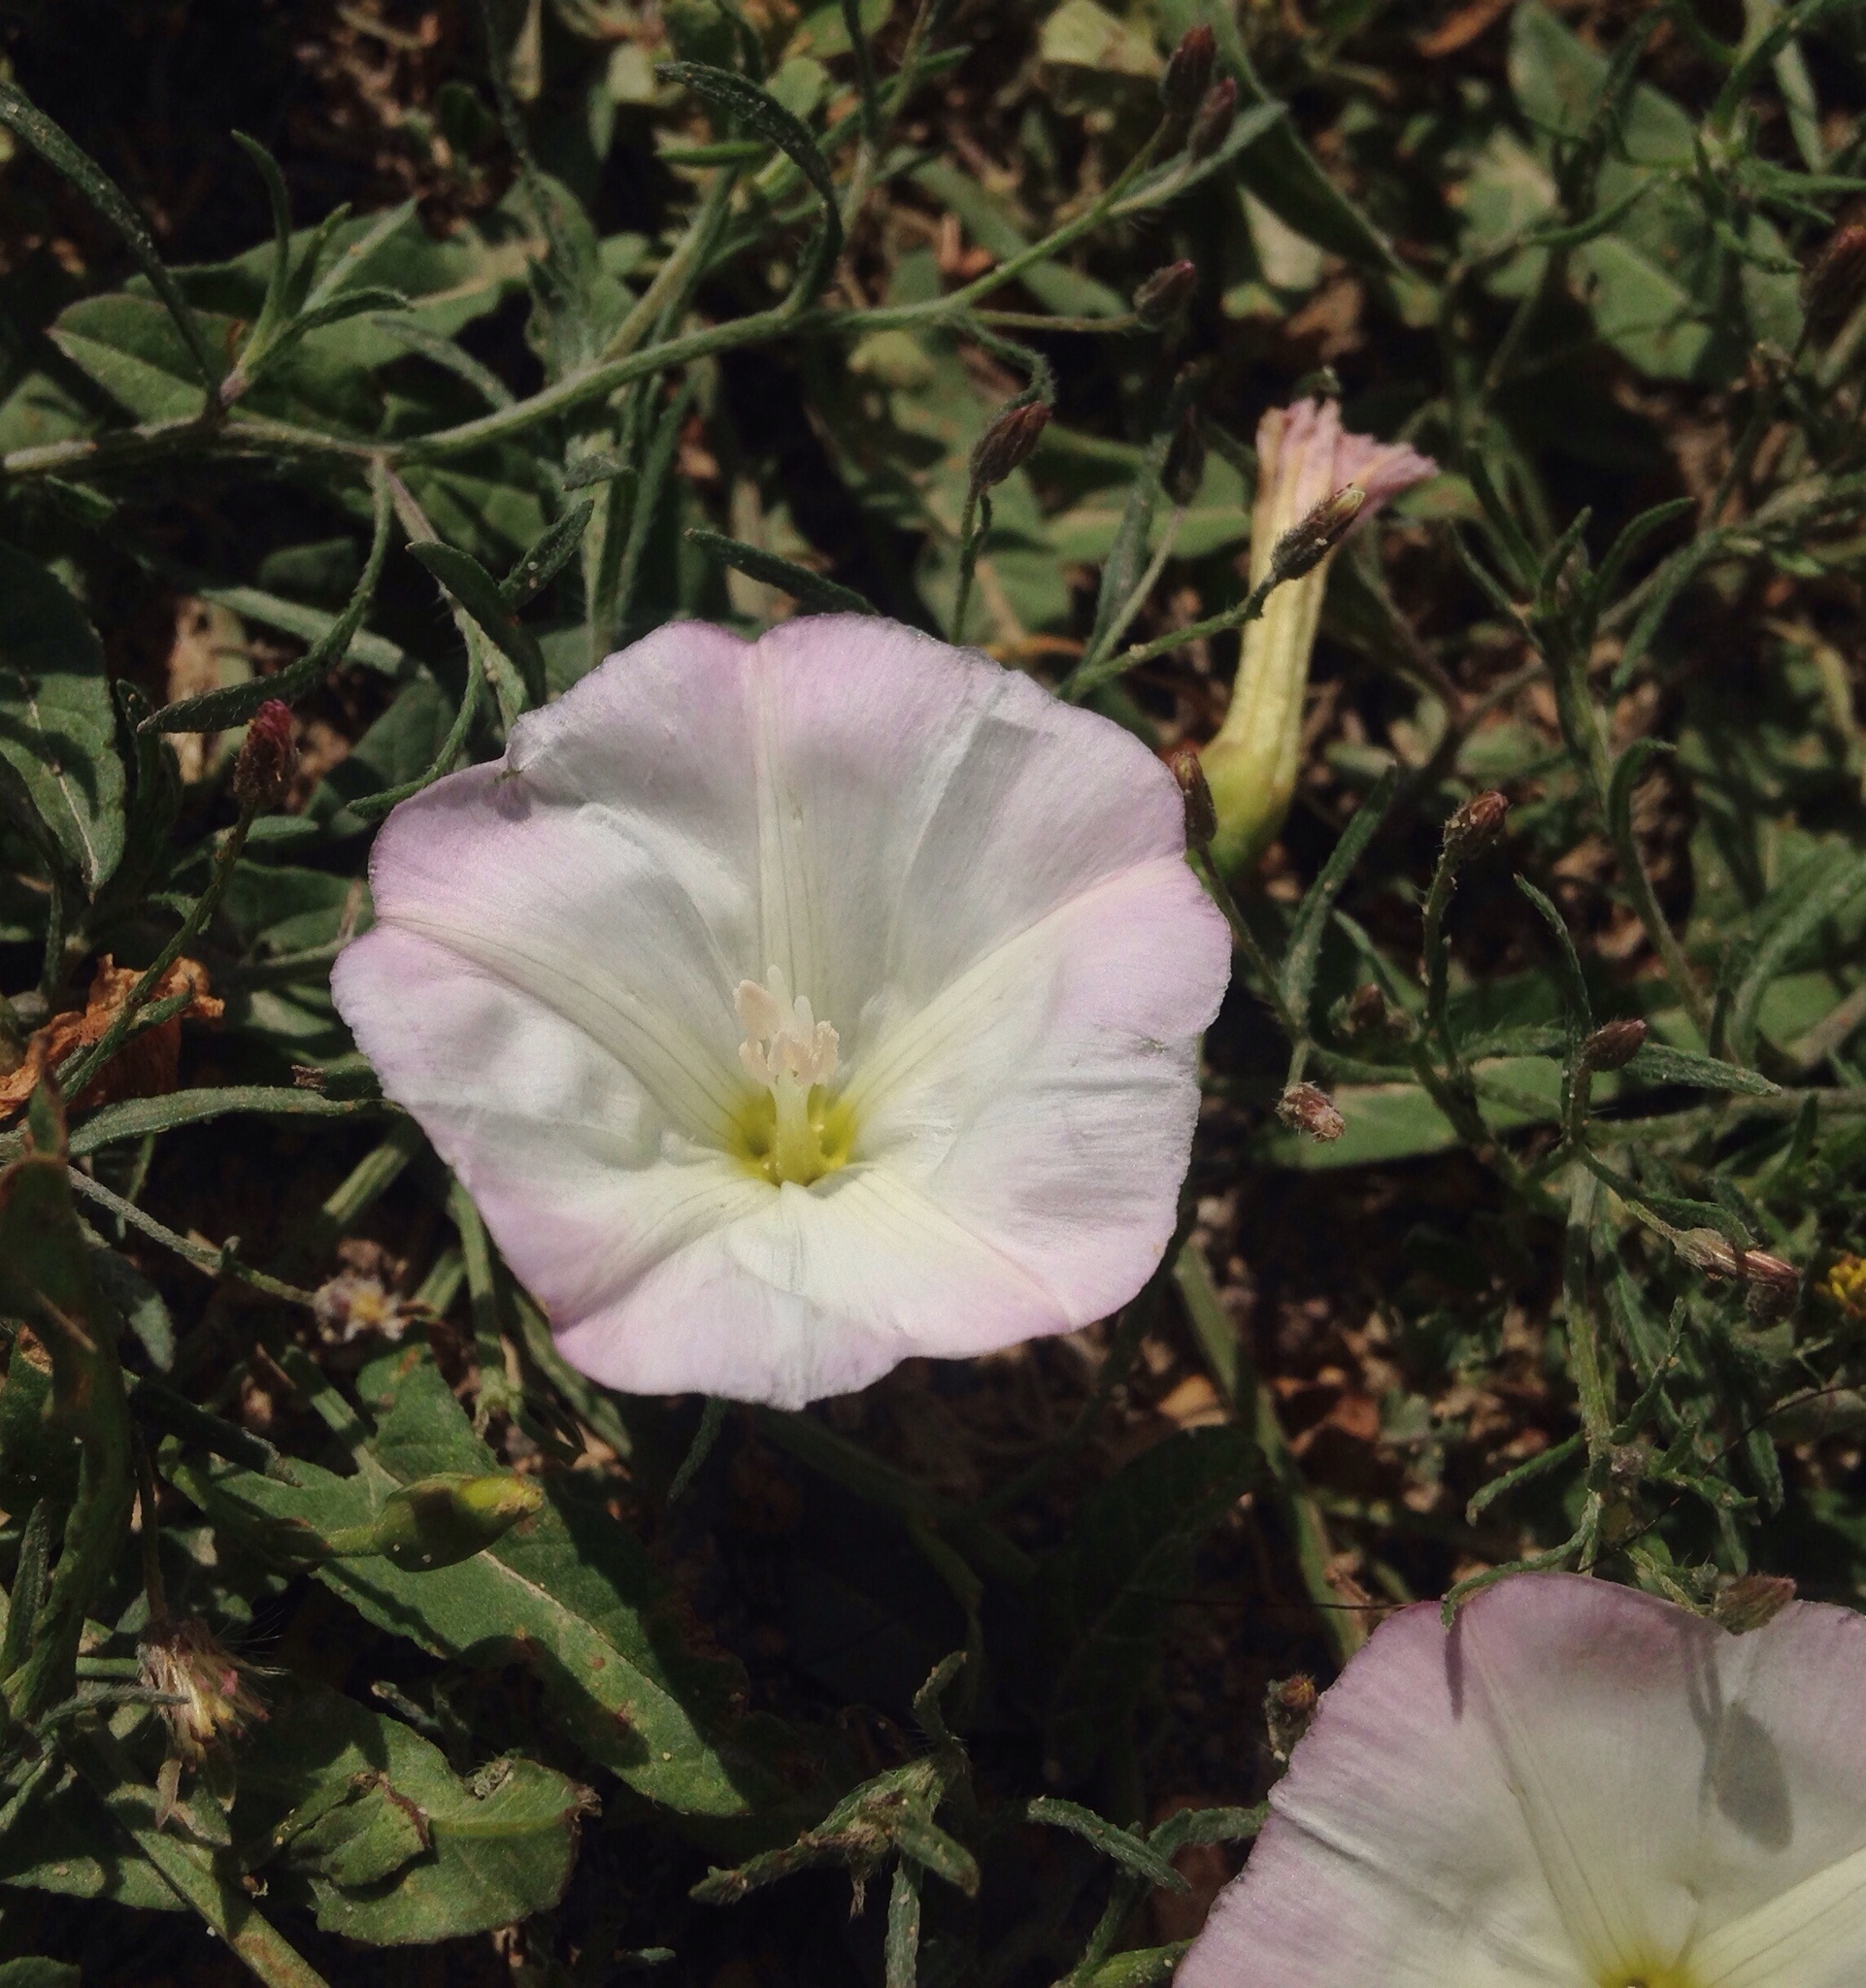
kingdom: Plantae
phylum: Tracheophyta
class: Magnoliopsida
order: Solanales
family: Convolvulaceae
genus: Convolvulus
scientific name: Convolvulus arvensis
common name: Field bindweed
